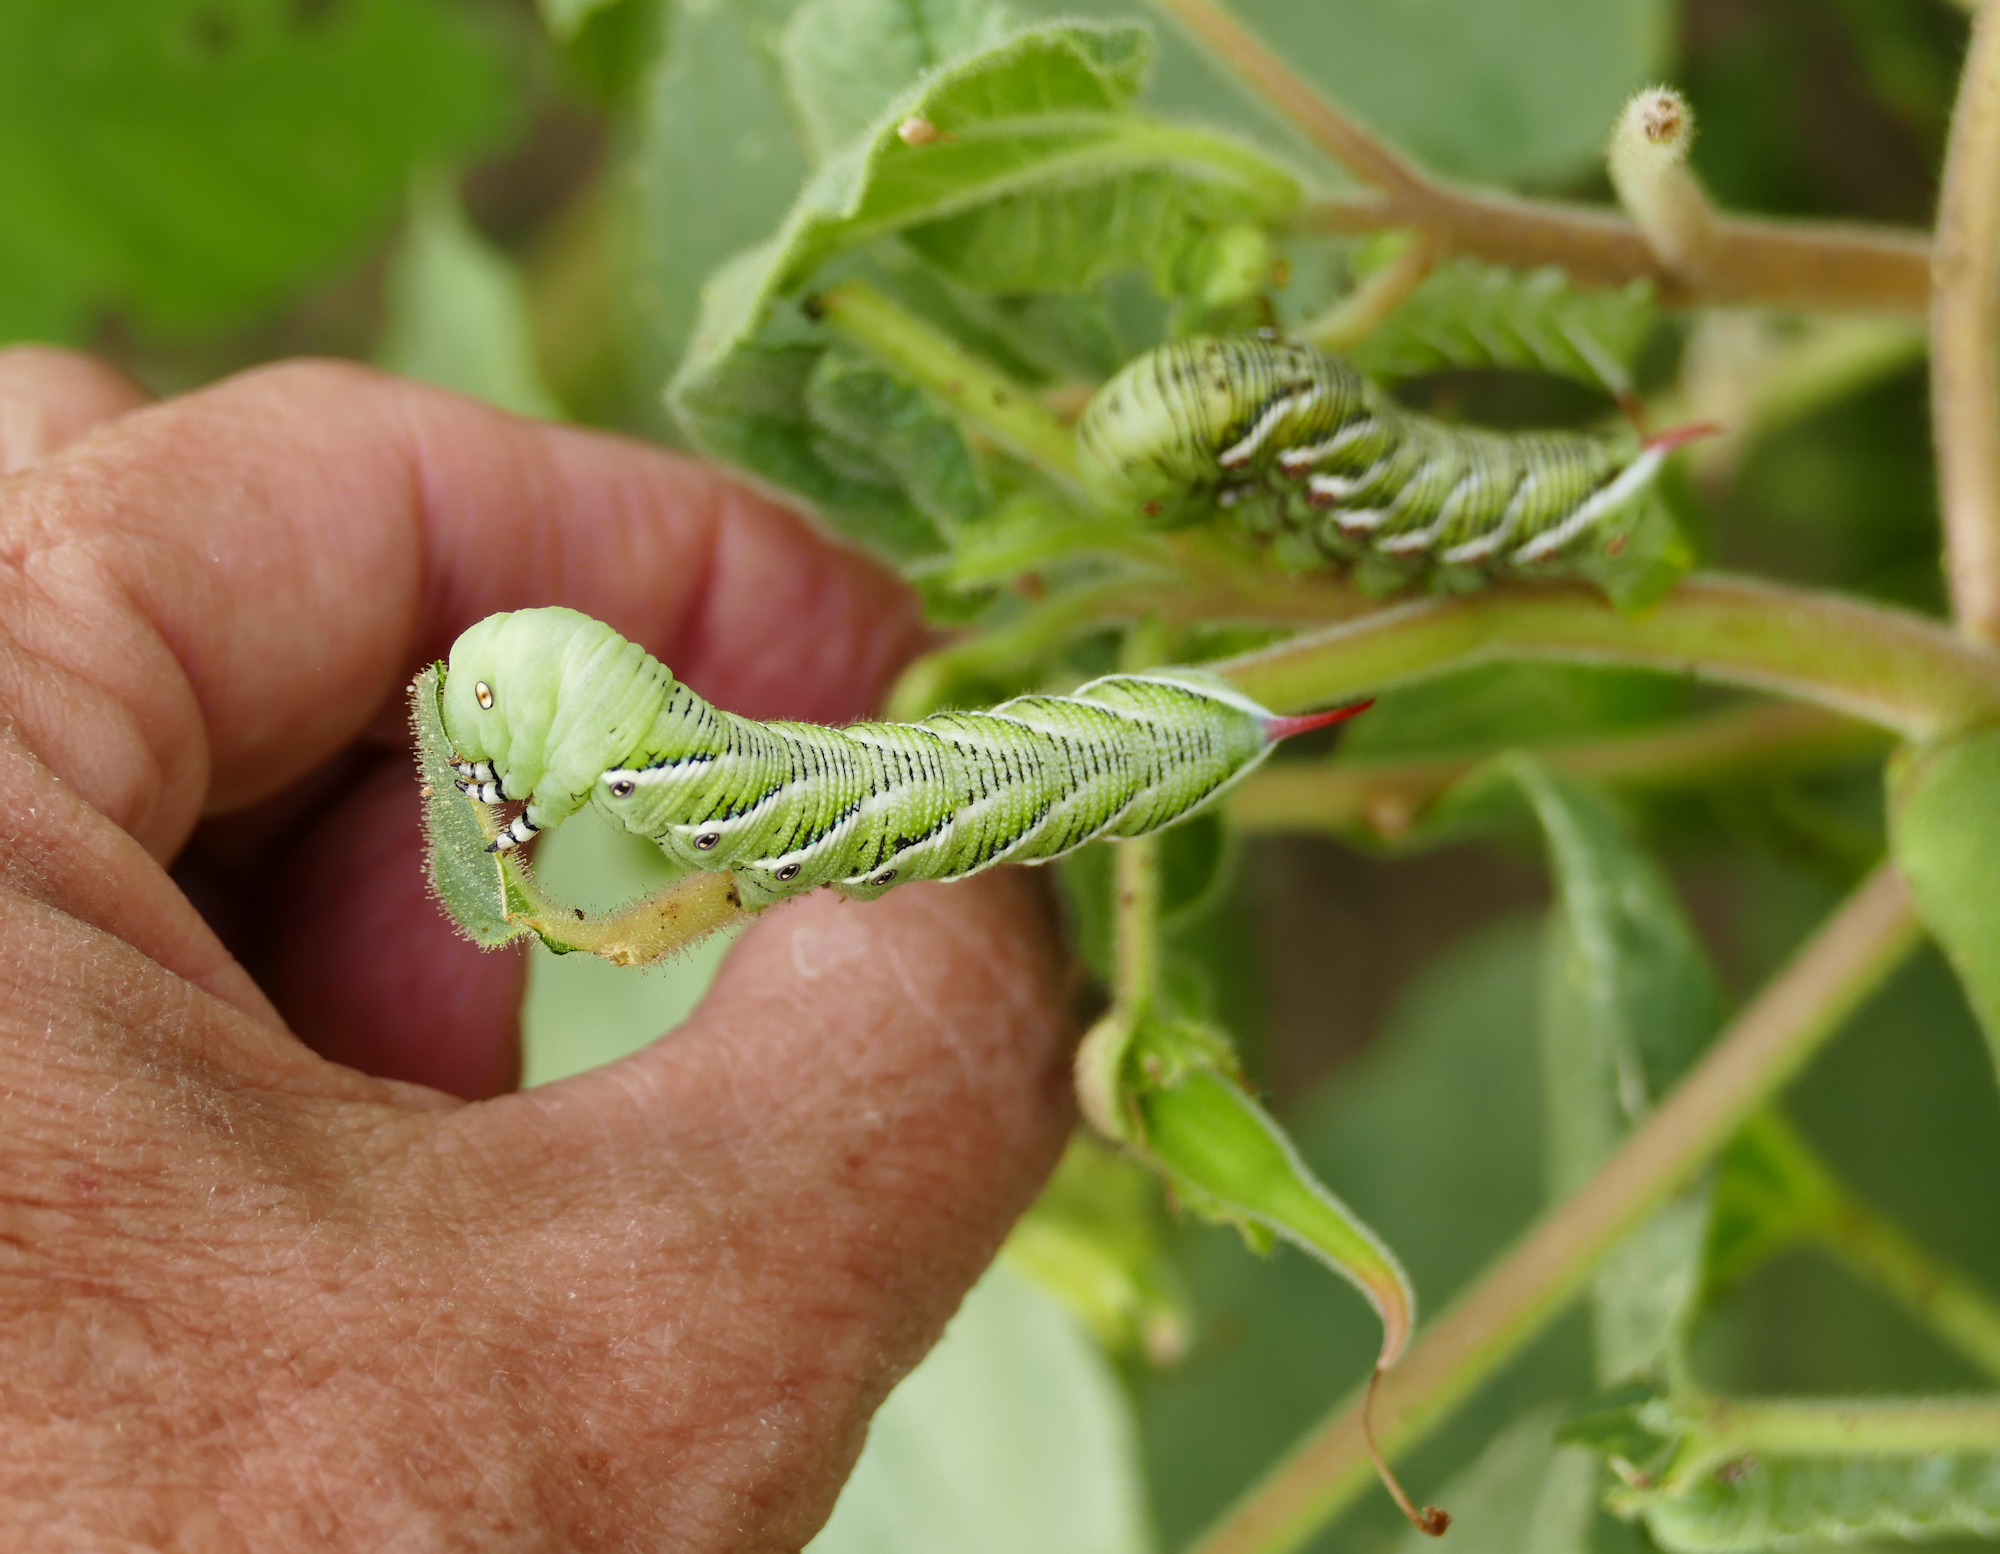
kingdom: Animalia
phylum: Arthropoda
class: Insecta
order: Lepidoptera
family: Sphingidae
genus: Manduca
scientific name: Manduca sexta
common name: Carolina sphinx
